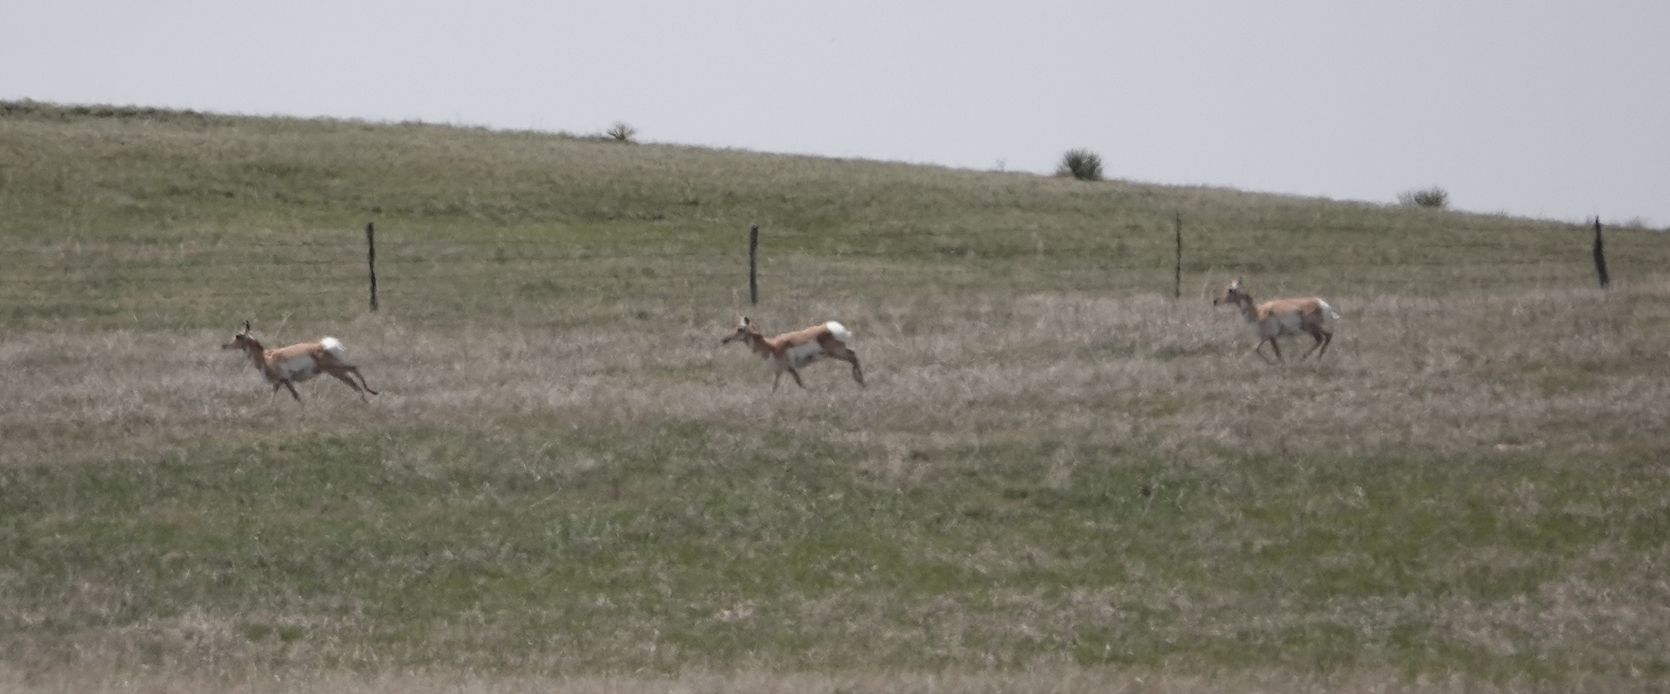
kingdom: Animalia
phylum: Chordata
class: Mammalia
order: Artiodactyla
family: Antilocapridae
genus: Antilocapra
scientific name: Antilocapra americana
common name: Pronghorn
